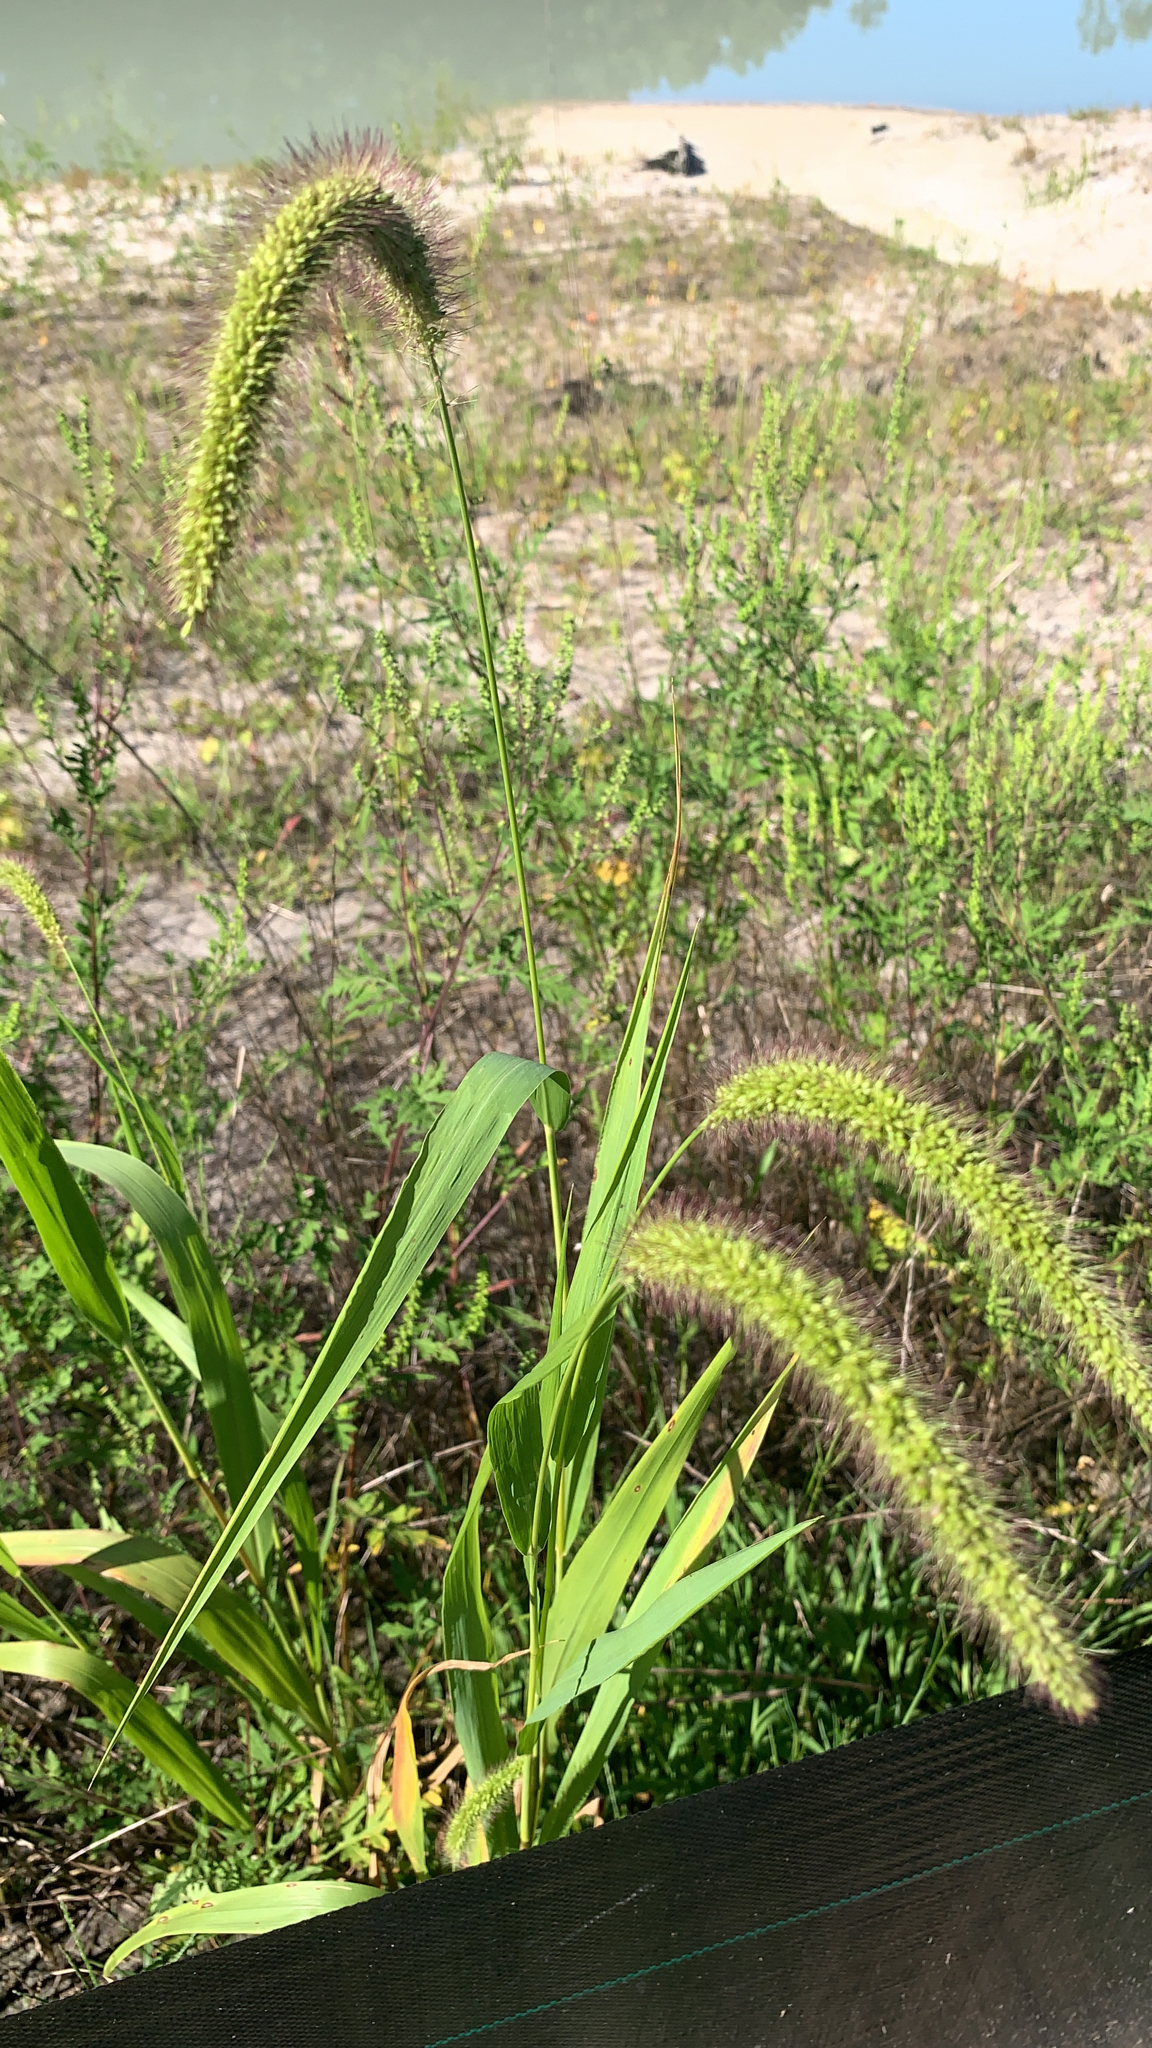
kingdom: Plantae
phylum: Tracheophyta
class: Liliopsida
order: Poales
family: Poaceae
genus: Setaria
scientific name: Setaria faberi
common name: Nodding bristle-grass
